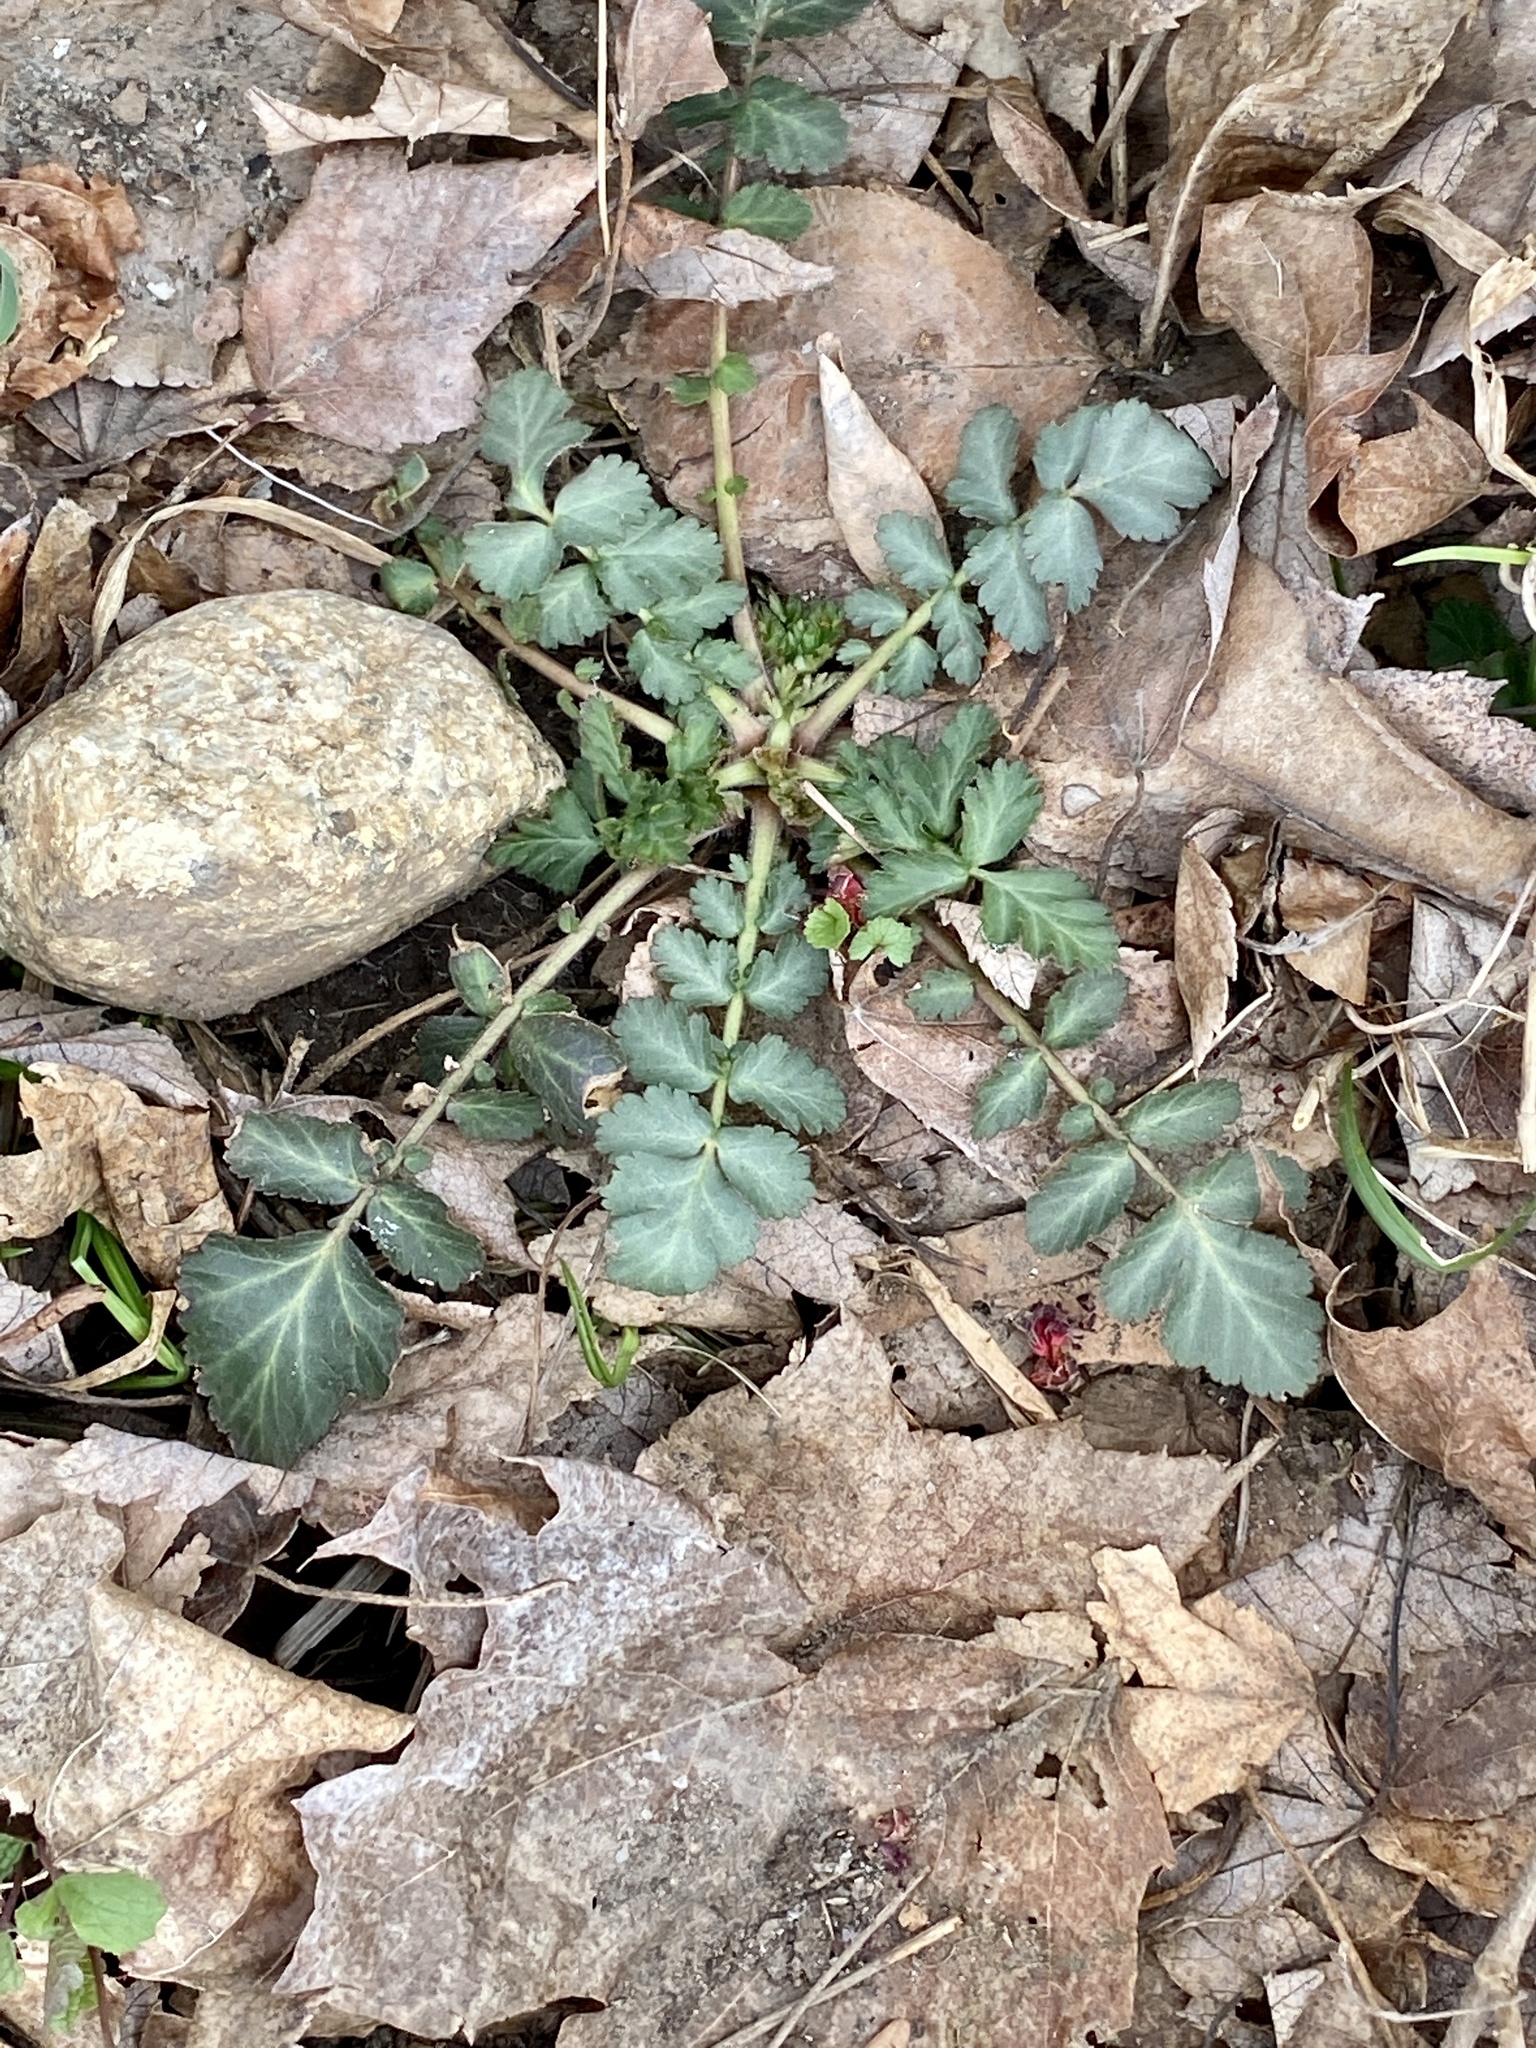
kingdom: Plantae
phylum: Tracheophyta
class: Magnoliopsida
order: Rosales
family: Rosaceae
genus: Geum
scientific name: Geum canadense
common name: White avens
